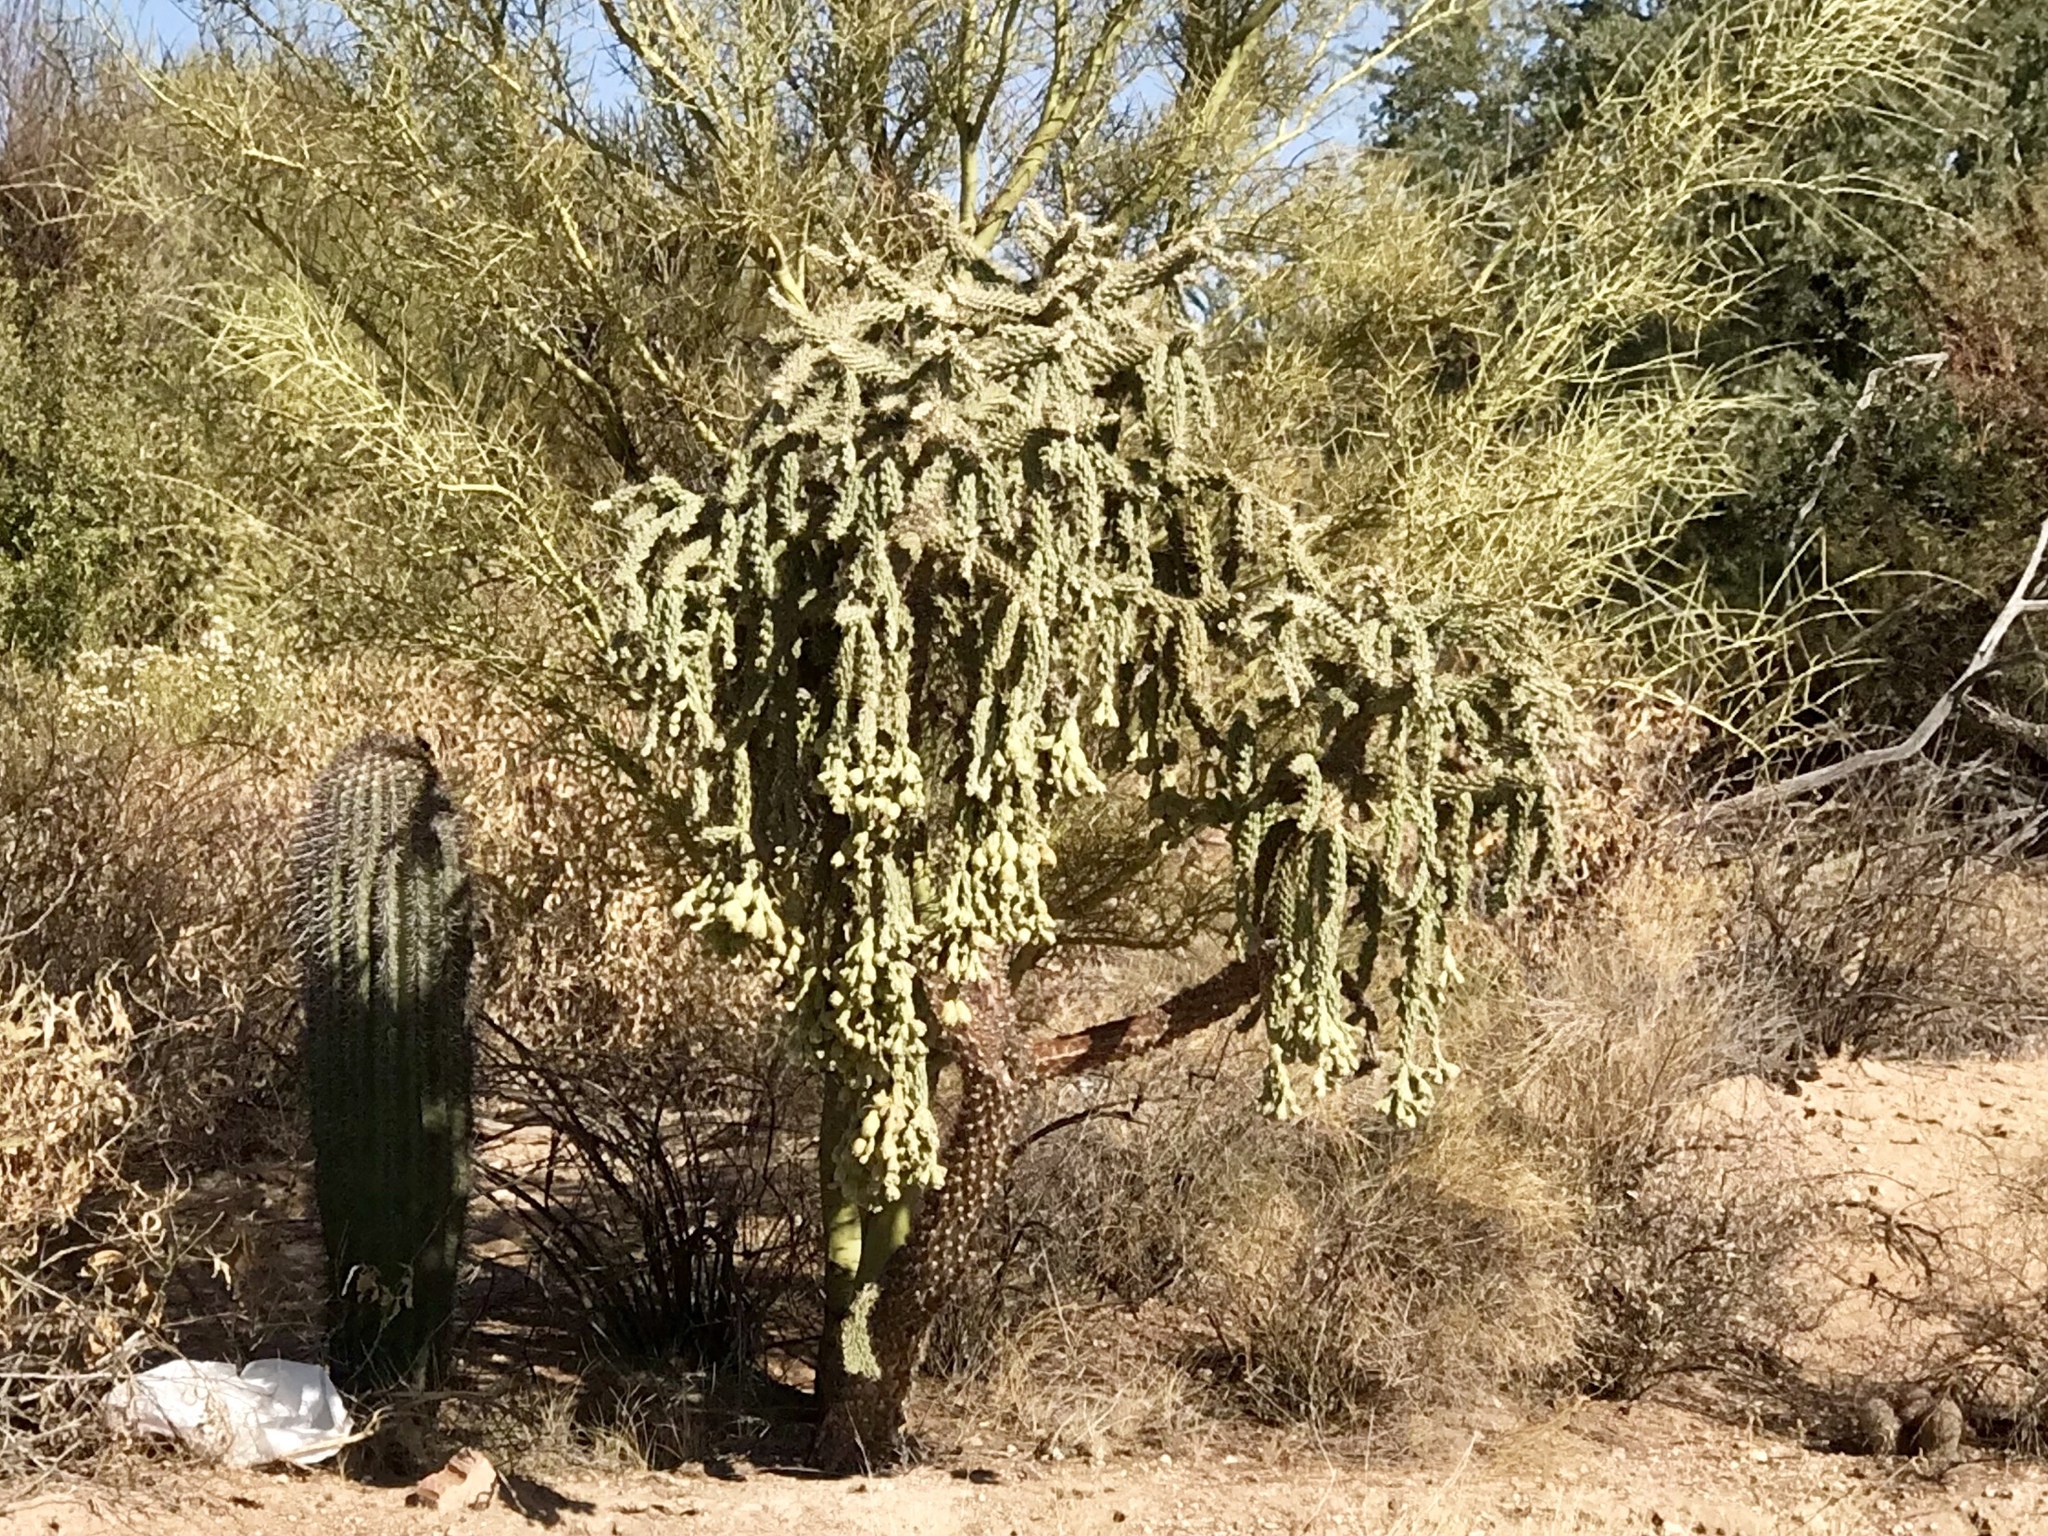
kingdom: Plantae
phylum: Tracheophyta
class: Magnoliopsida
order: Caryophyllales
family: Cactaceae
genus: Cylindropuntia
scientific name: Cylindropuntia fulgida
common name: Jumping cholla
